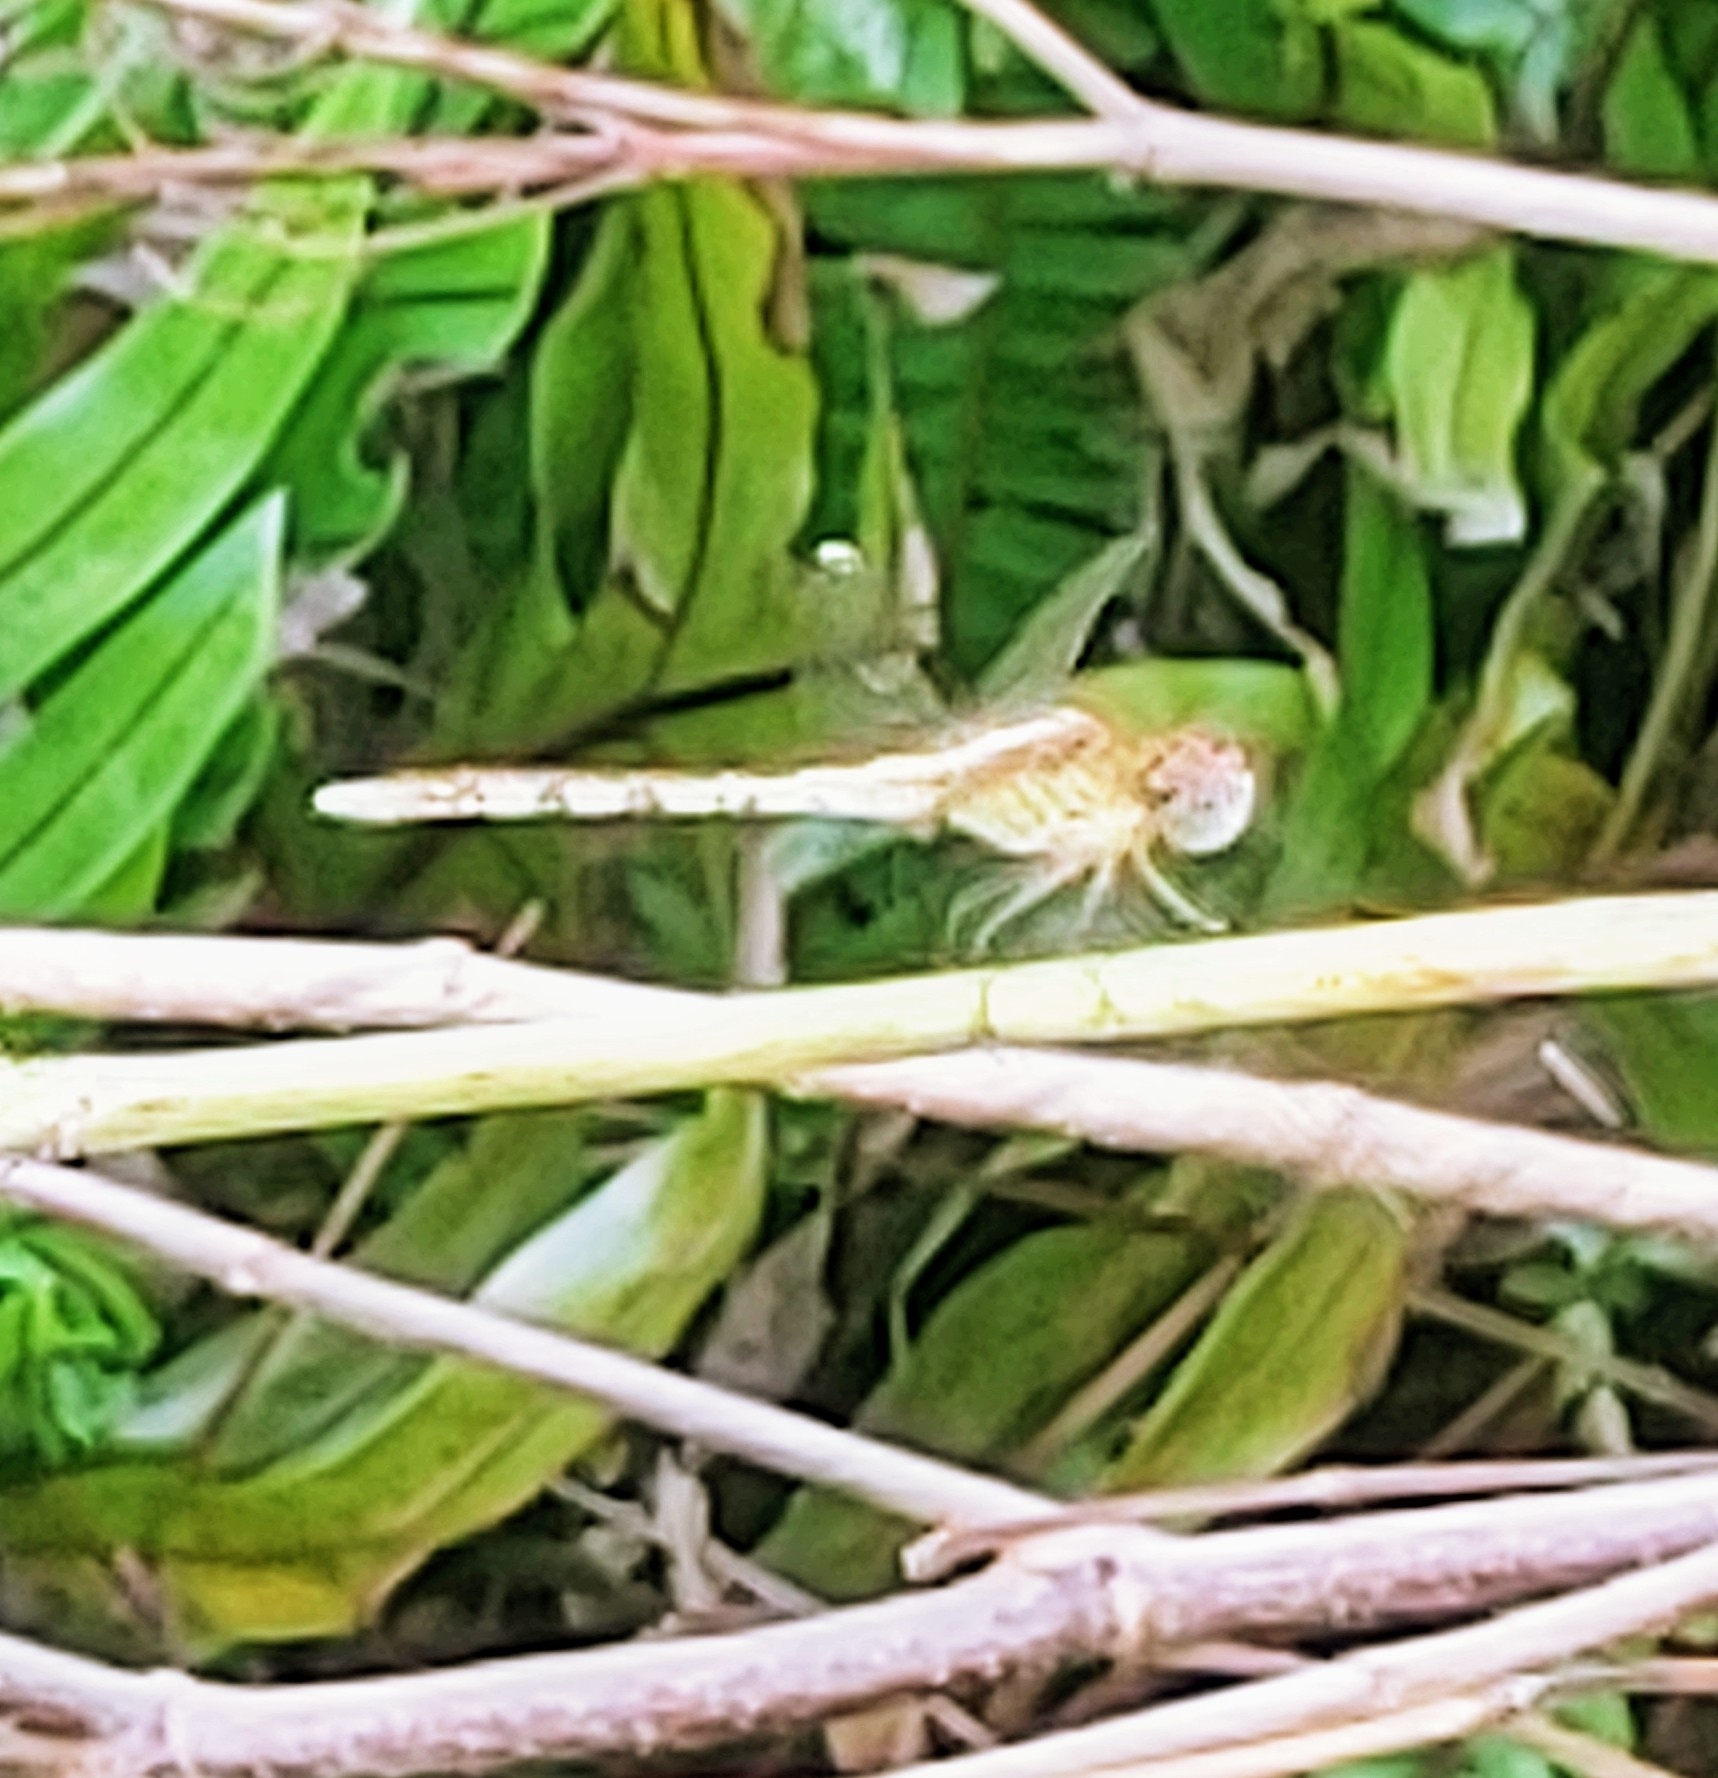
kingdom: Animalia
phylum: Arthropoda
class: Insecta
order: Odonata
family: Libellulidae
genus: Erythrodiplax
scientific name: Erythrodiplax umbrata
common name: Band-winged dragonlet
